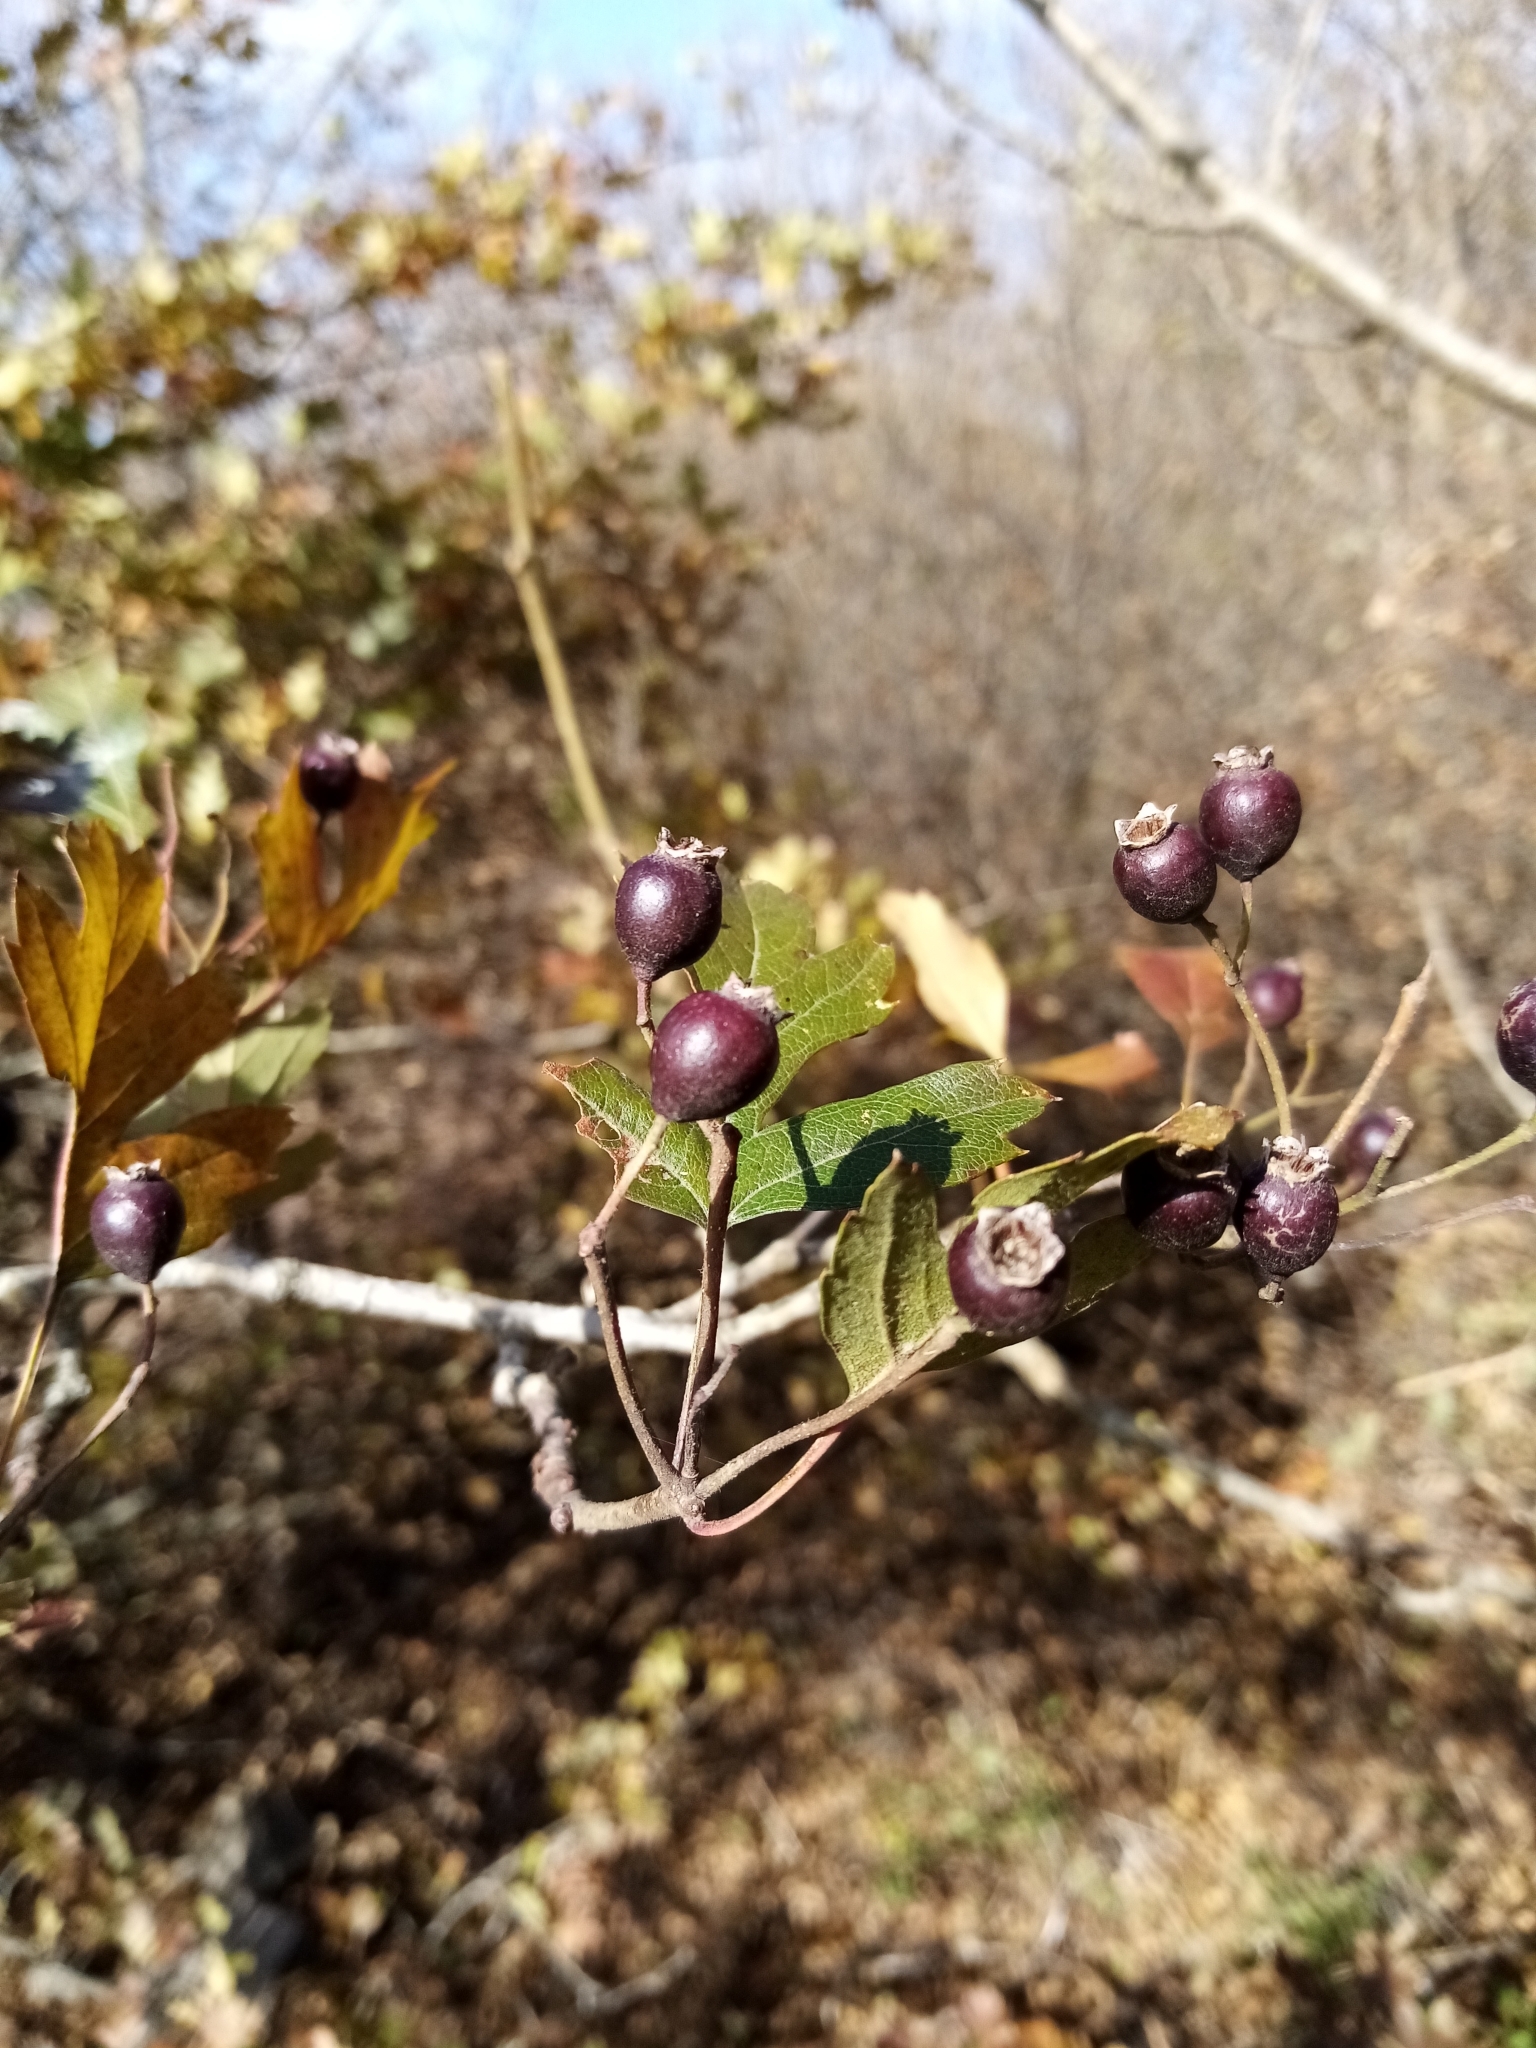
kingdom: Plantae
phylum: Tracheophyta
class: Magnoliopsida
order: Rosales
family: Rosaceae
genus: Crataegus
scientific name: Crataegus pentagyna
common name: Small-flowered black hawthorn
